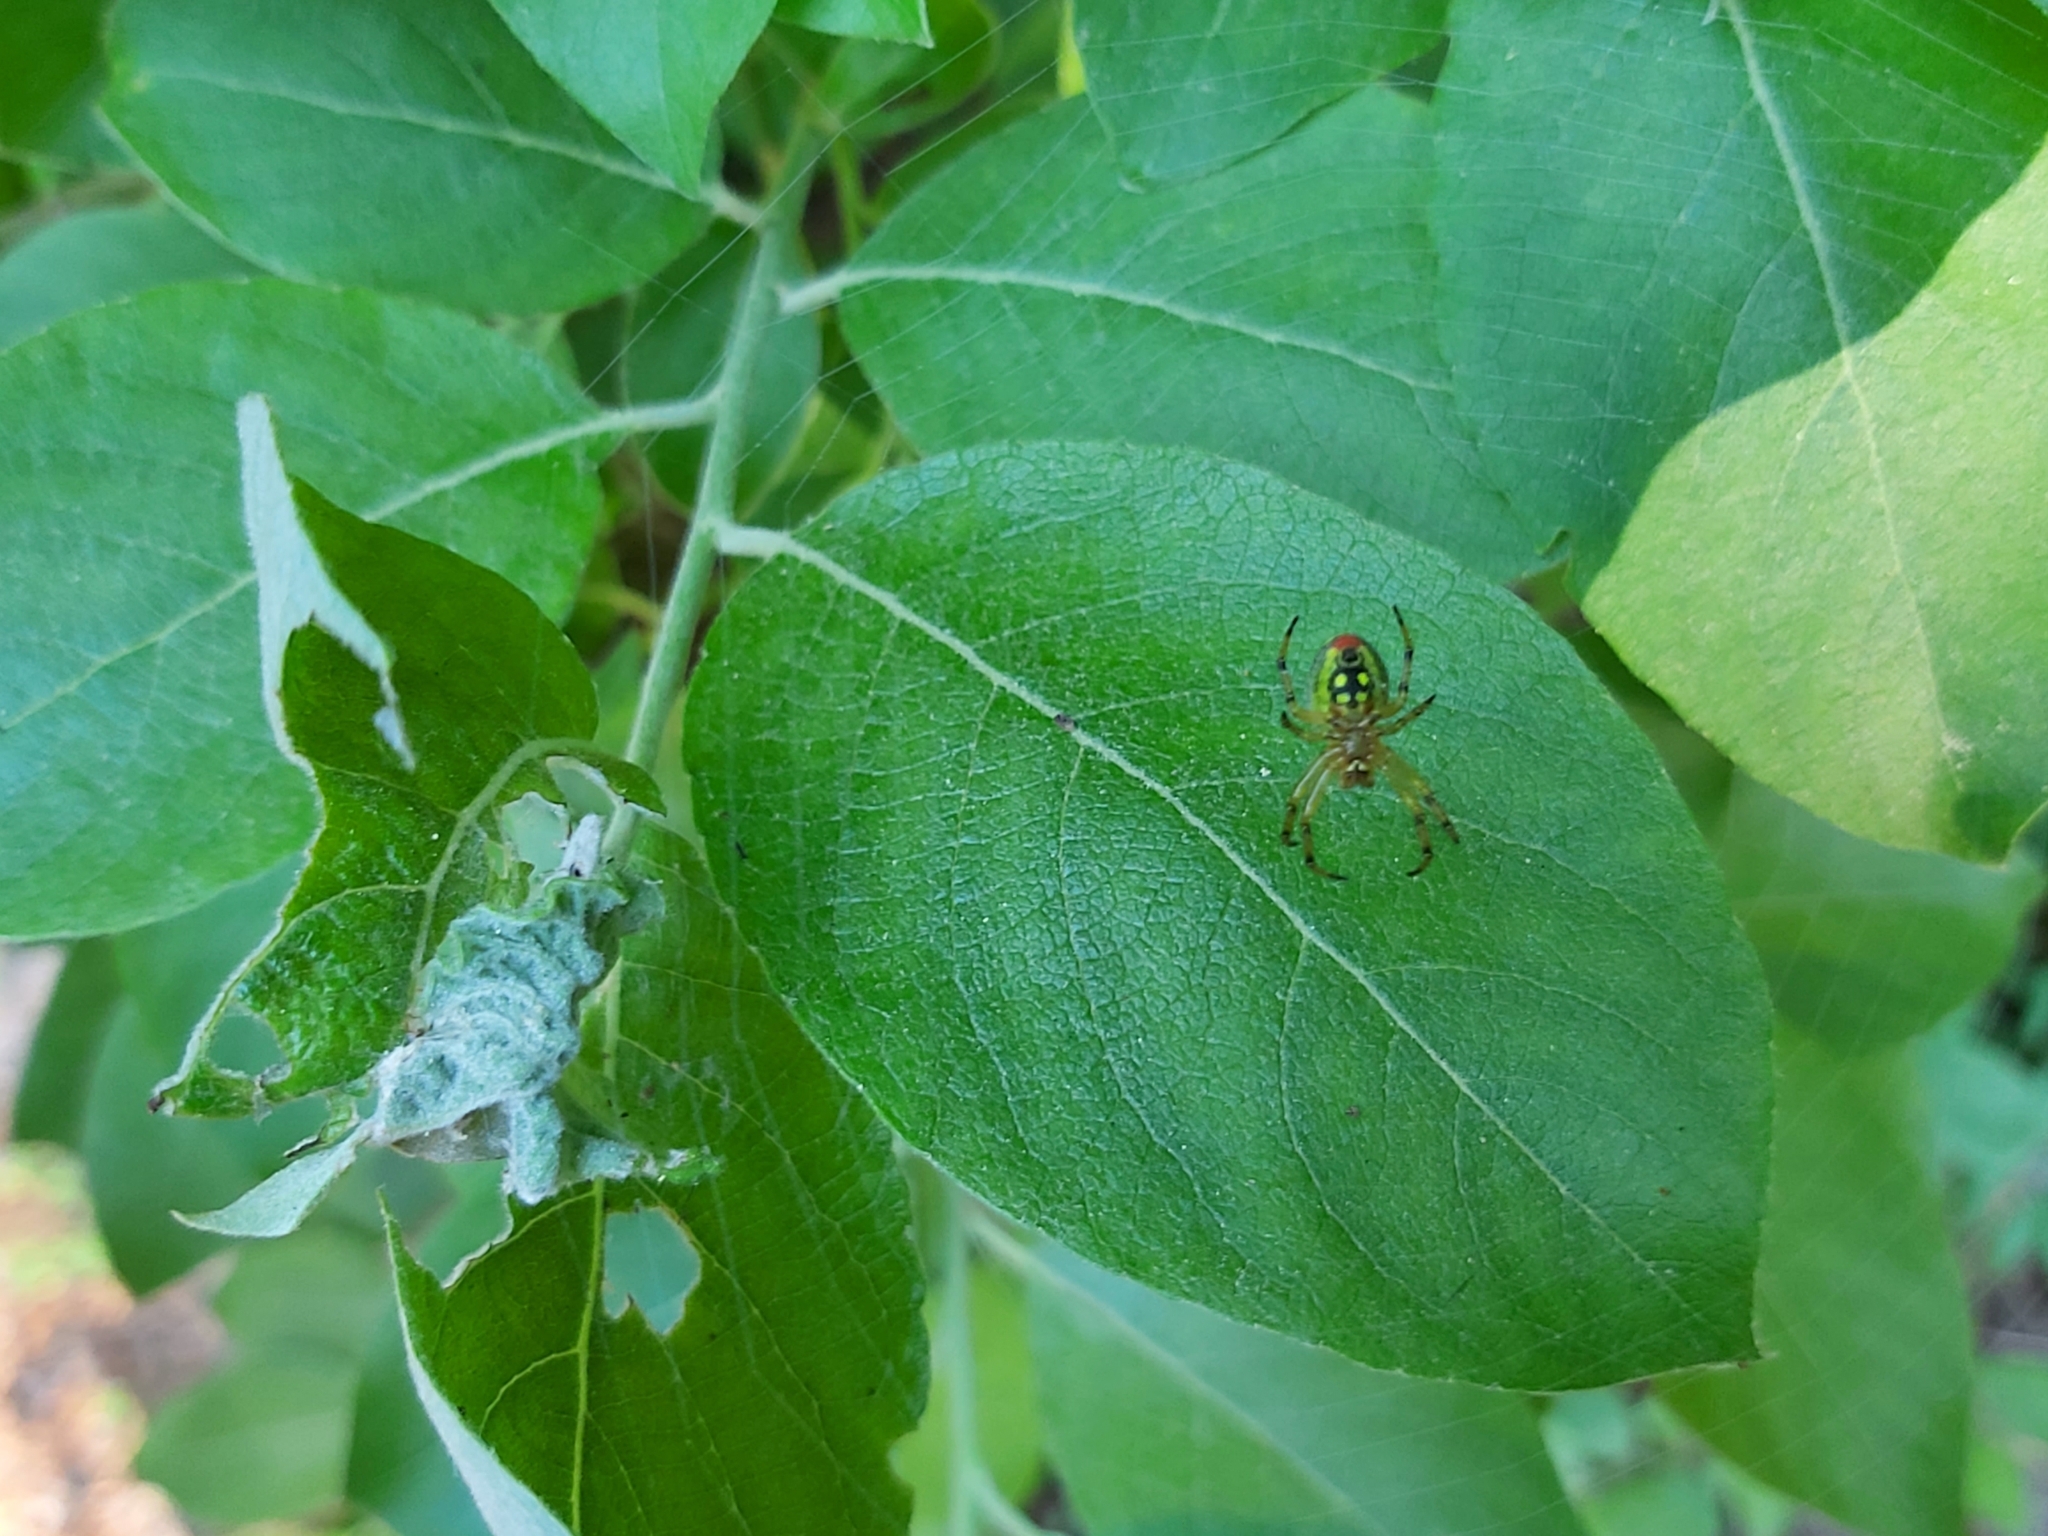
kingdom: Animalia
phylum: Arthropoda
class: Arachnida
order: Araneae
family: Araneidae
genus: Araniella
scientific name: Araniella alpica
